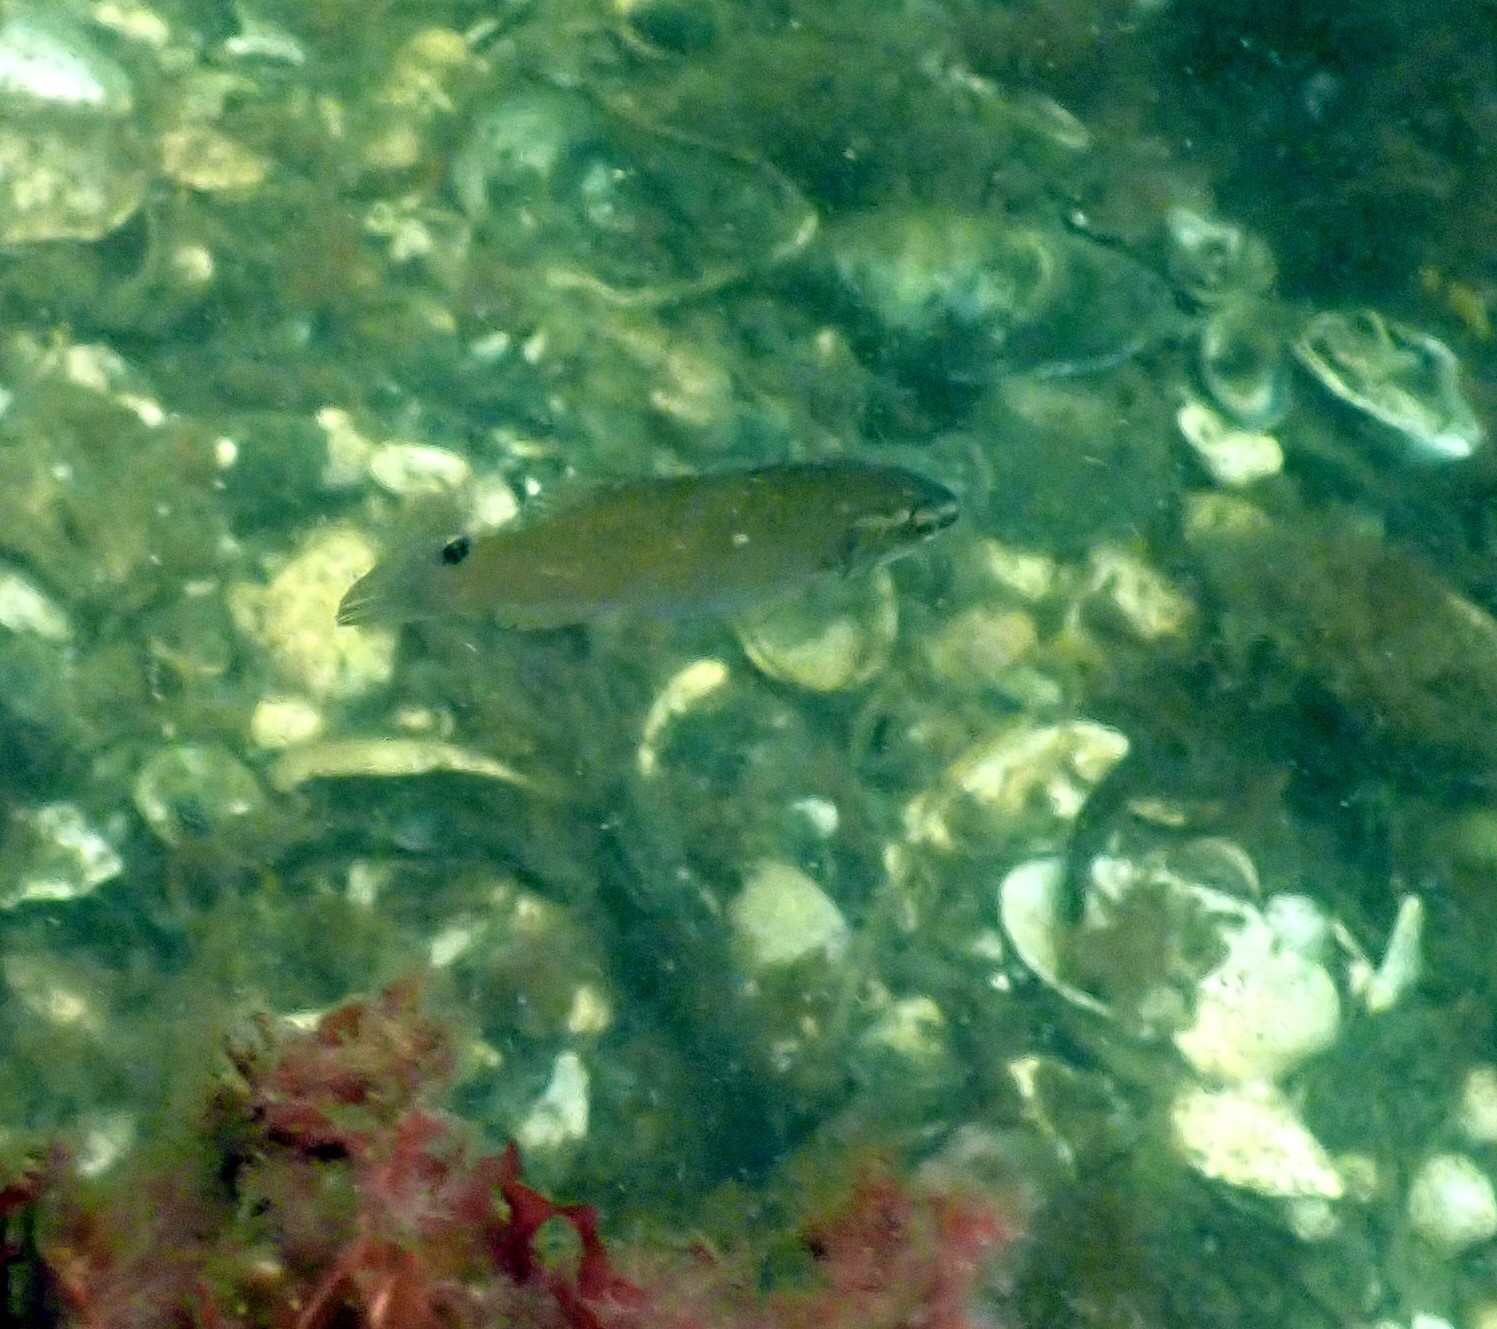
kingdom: Animalia
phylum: Chordata
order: Perciformes
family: Labridae
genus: Ctenolabrus
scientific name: Ctenolabrus rupestris
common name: Goldsinny
